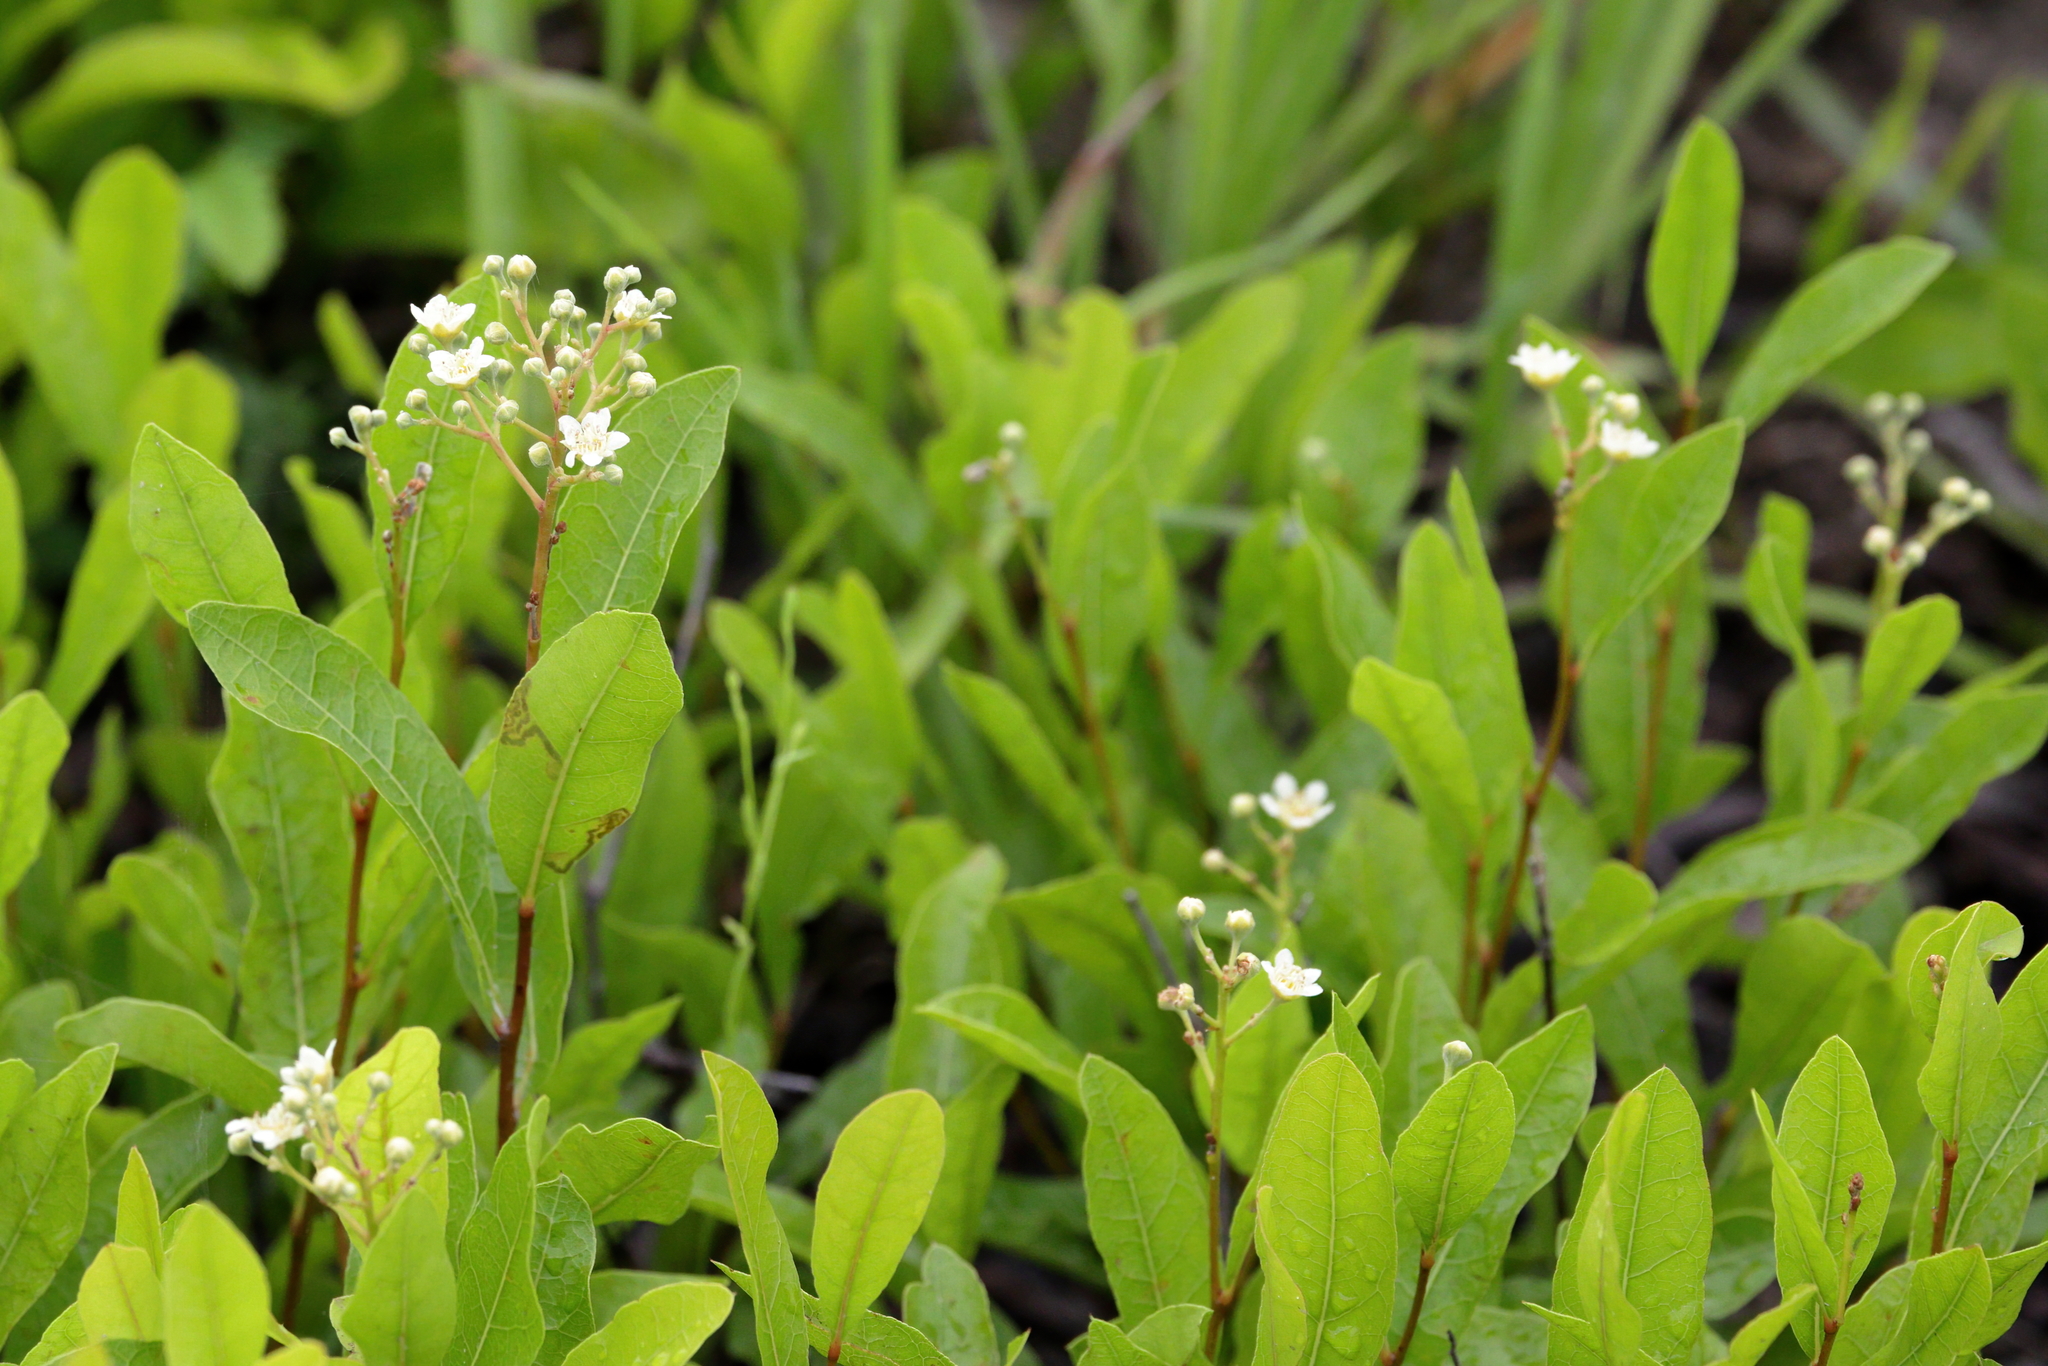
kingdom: Plantae
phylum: Tracheophyta
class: Magnoliopsida
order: Malpighiales
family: Chrysobalanaceae
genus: Geobalanus
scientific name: Geobalanus oblongifolius
